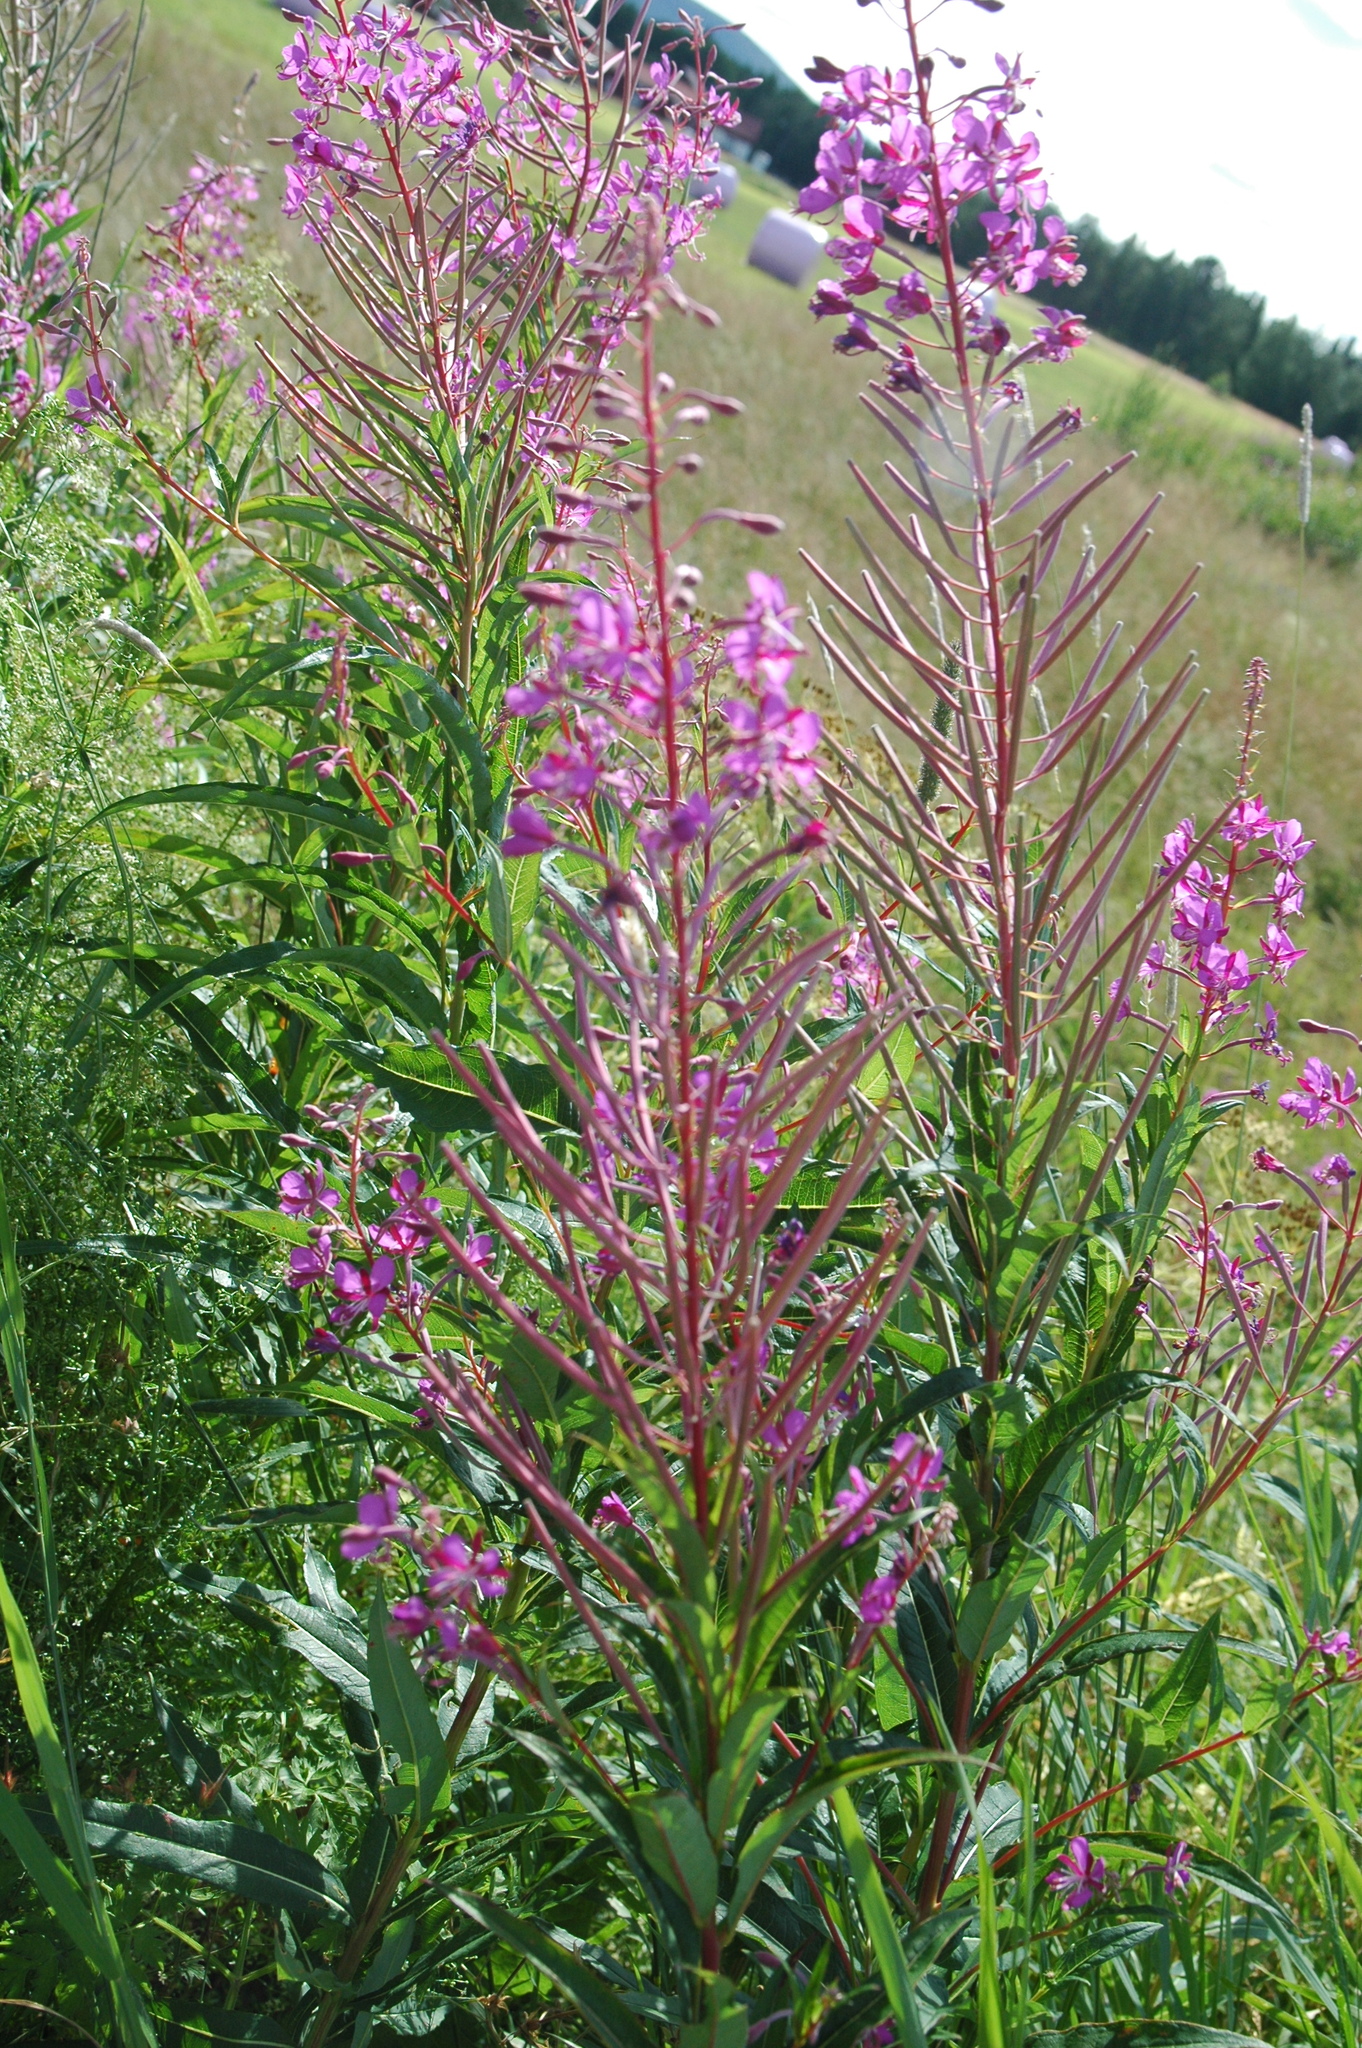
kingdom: Plantae
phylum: Tracheophyta
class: Magnoliopsida
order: Myrtales
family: Onagraceae
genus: Chamaenerion
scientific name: Chamaenerion angustifolium
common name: Fireweed
